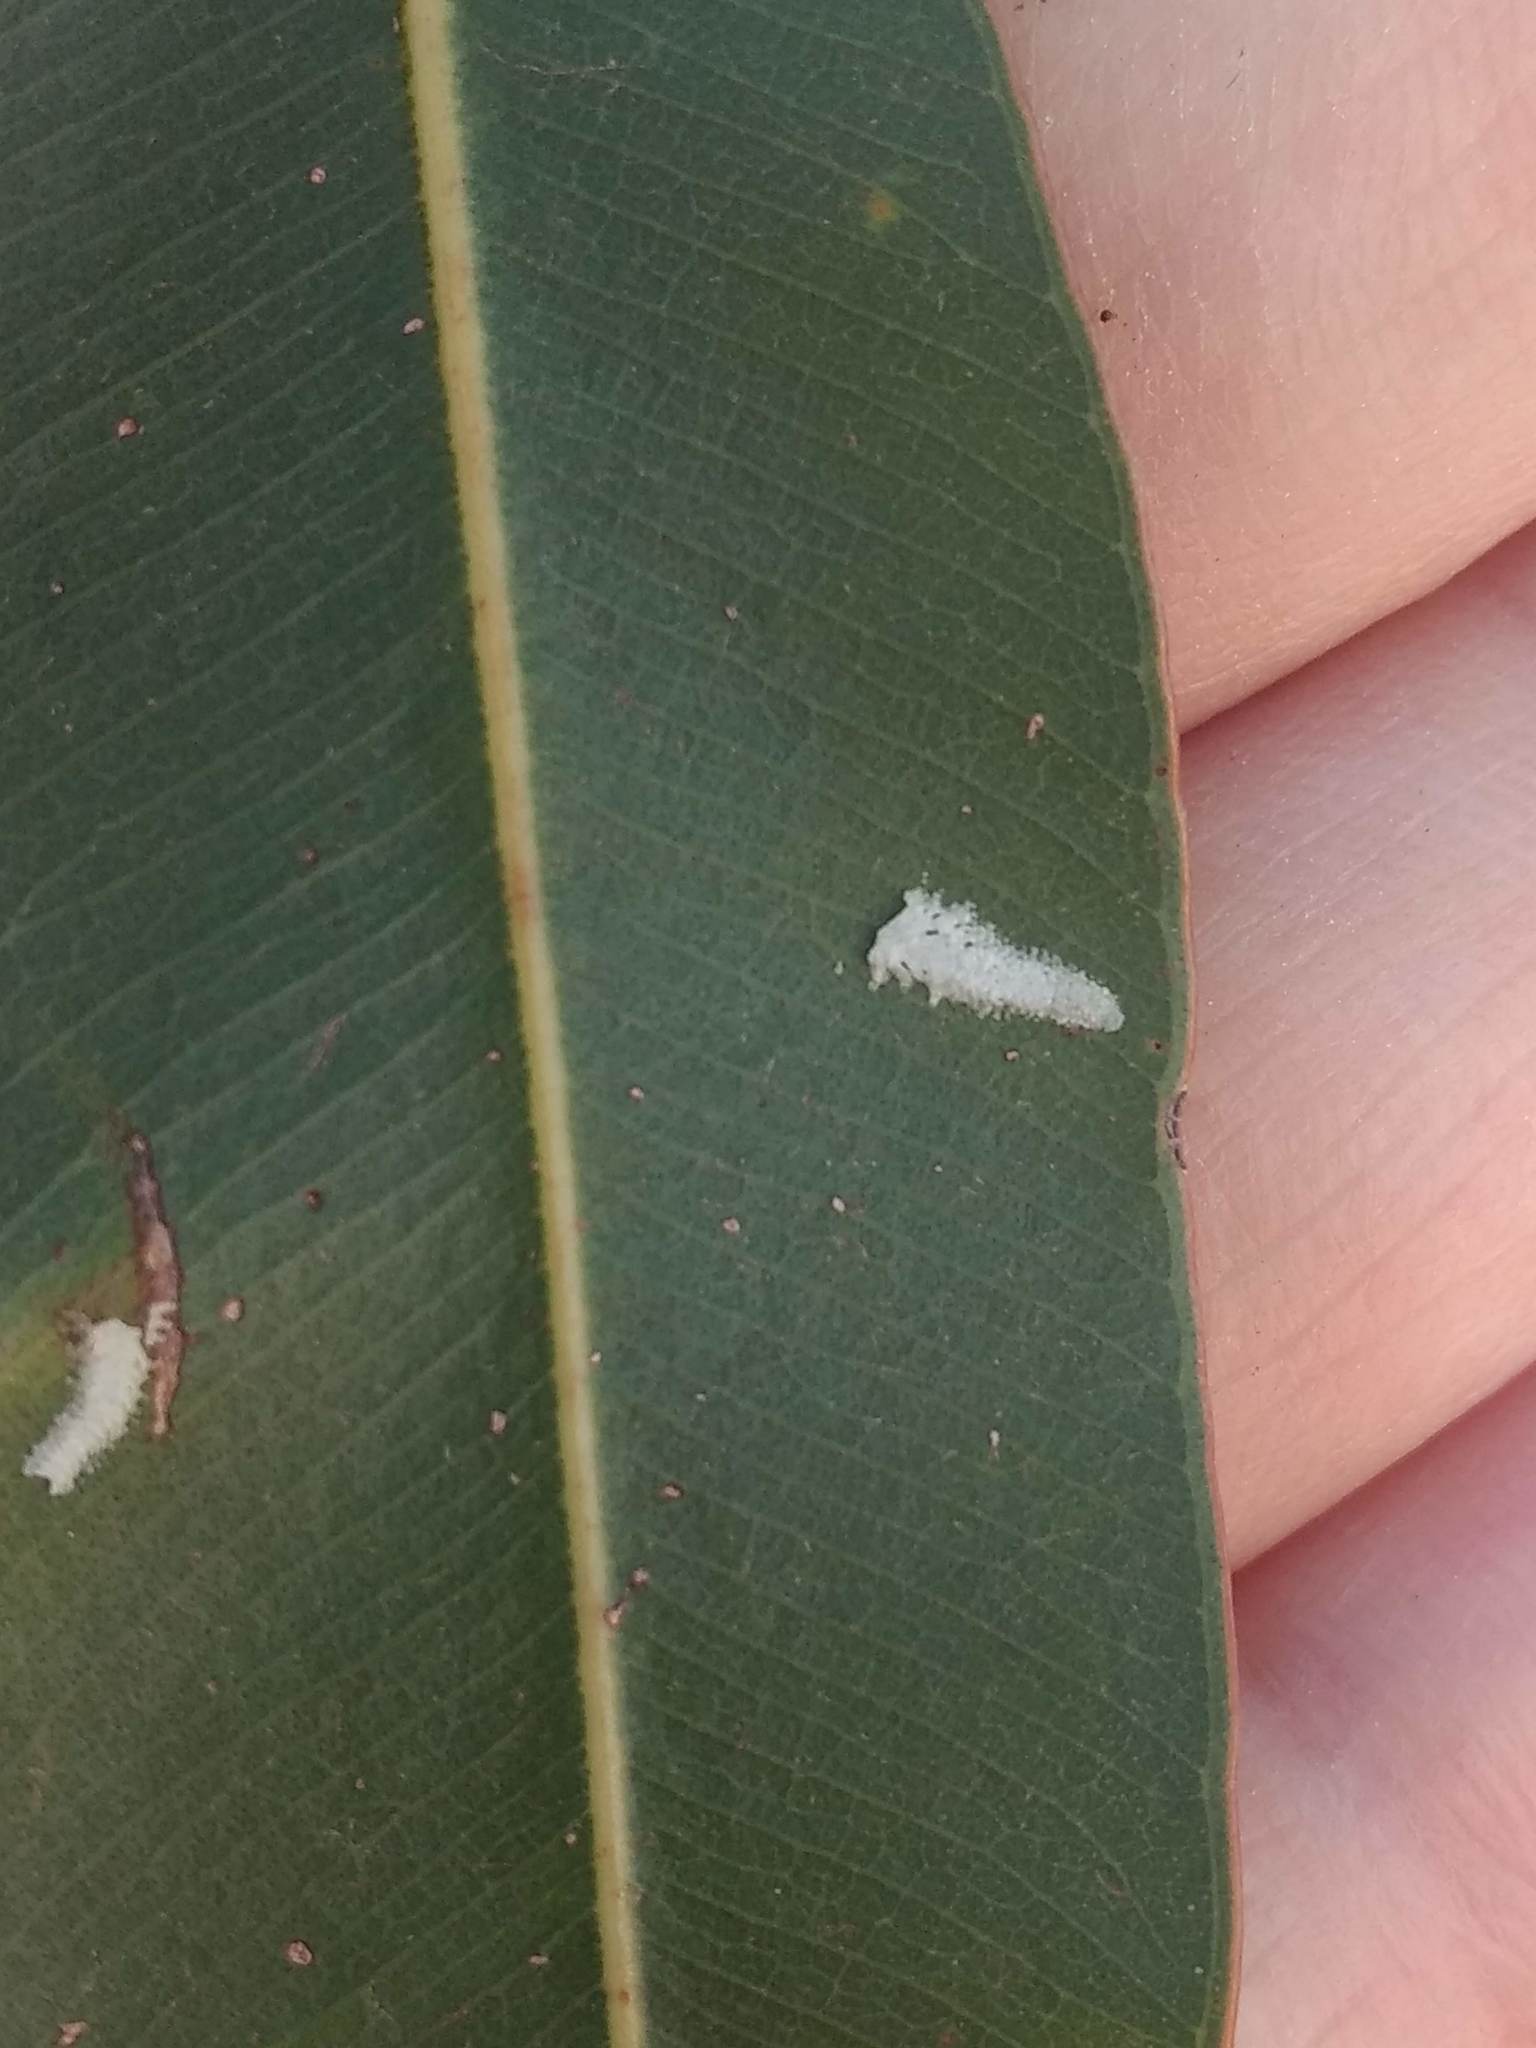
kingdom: Animalia
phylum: Arthropoda
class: Insecta
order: Hemiptera
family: Aphalaridae
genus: Eucalyptolyma
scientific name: Eucalyptolyma maideni
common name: Spotted gum lerp psyllid
